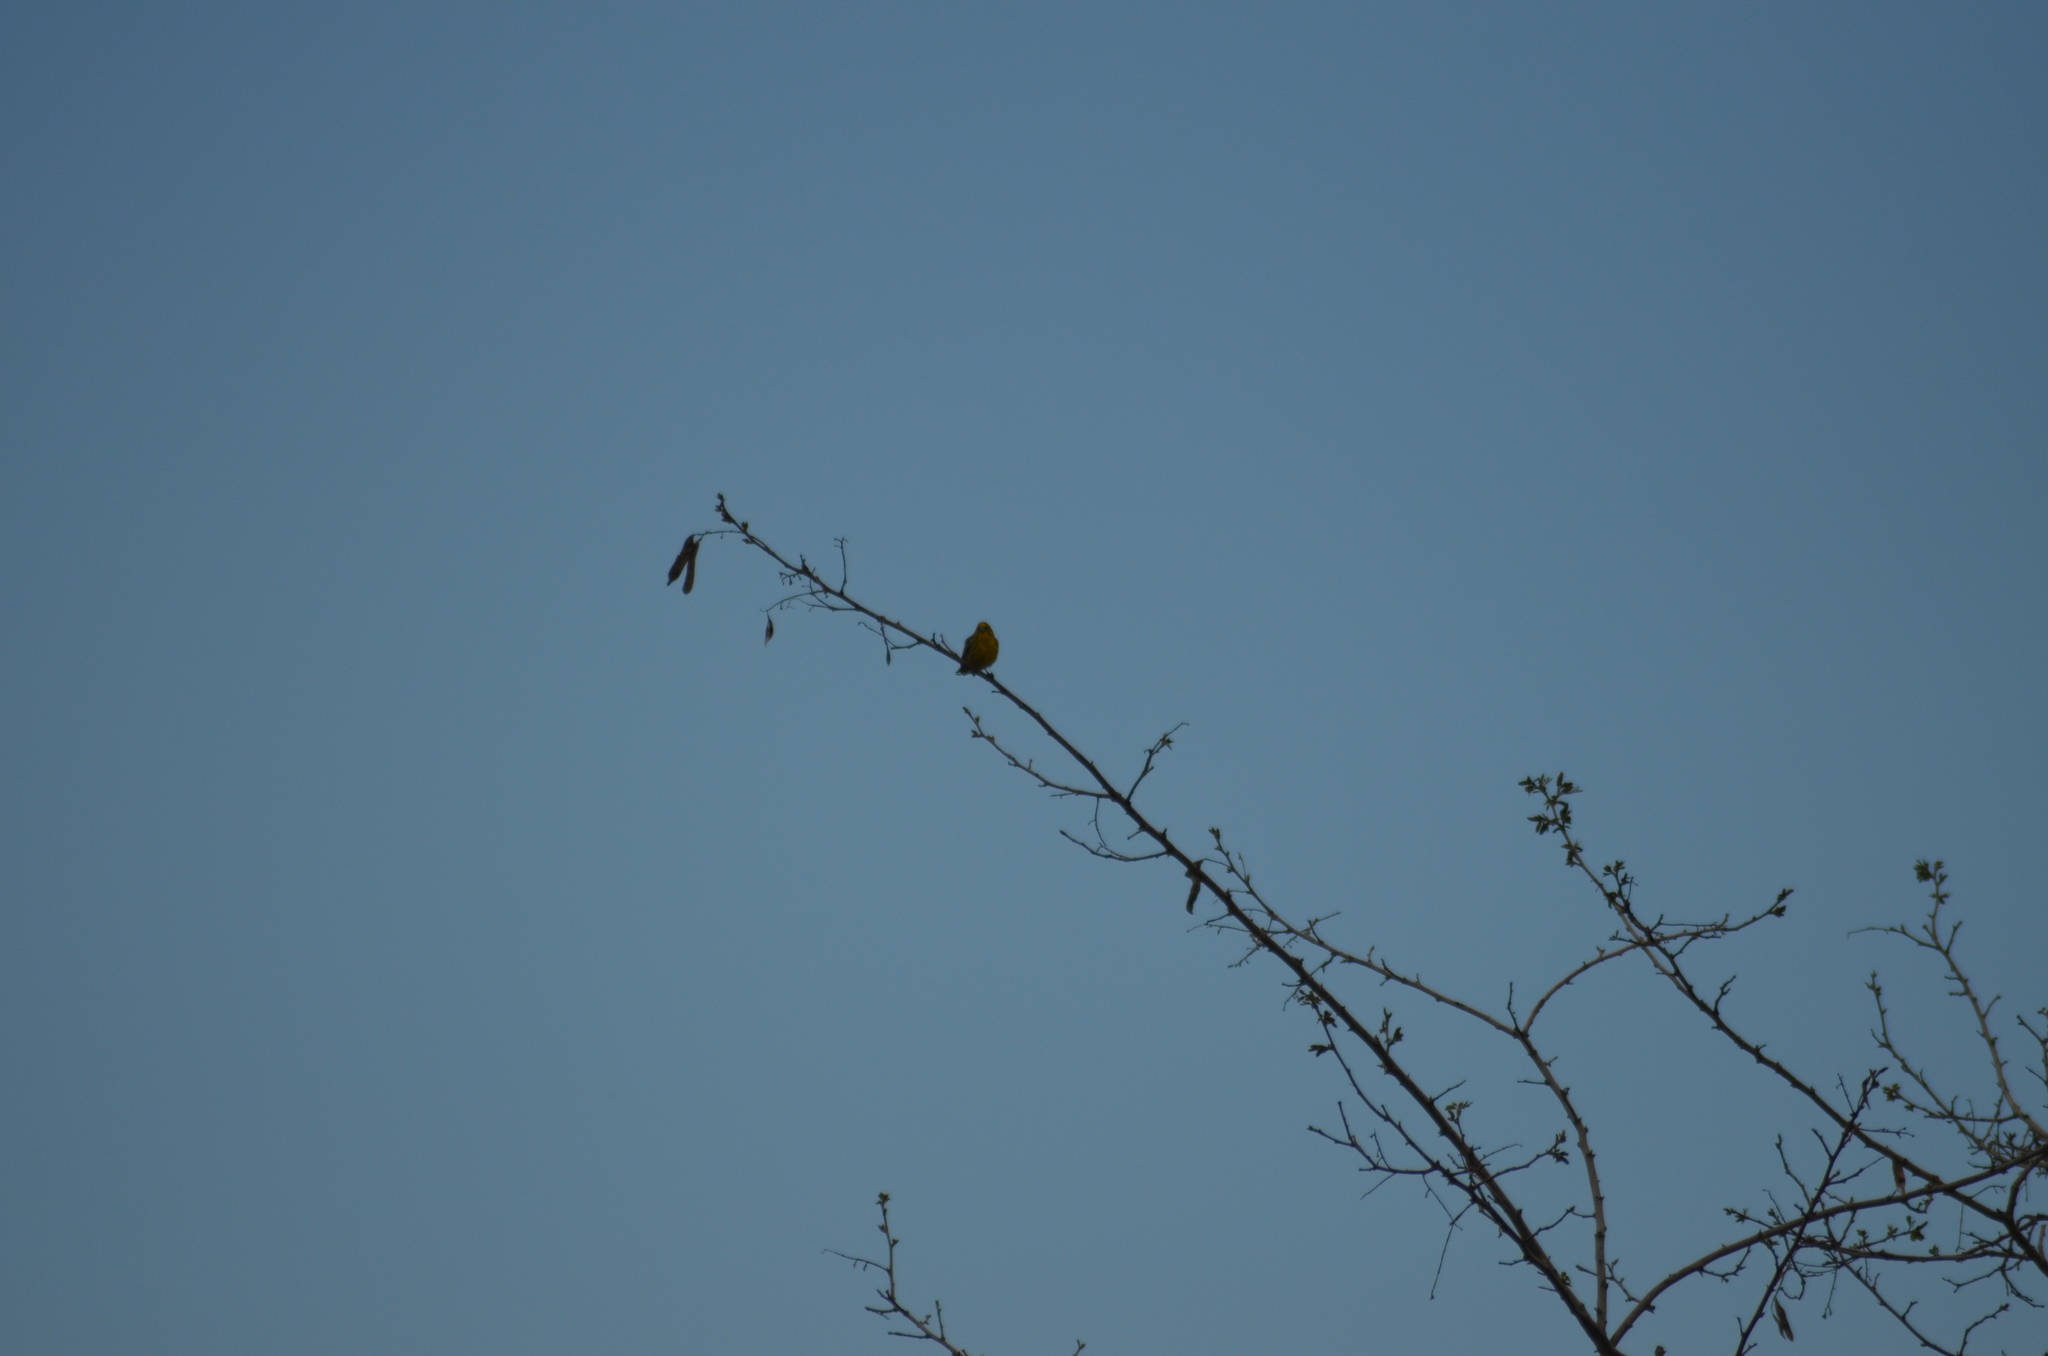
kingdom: Animalia
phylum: Chordata
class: Aves
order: Passeriformes
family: Fringillidae
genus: Serinus
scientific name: Serinus serinus
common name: European serin
